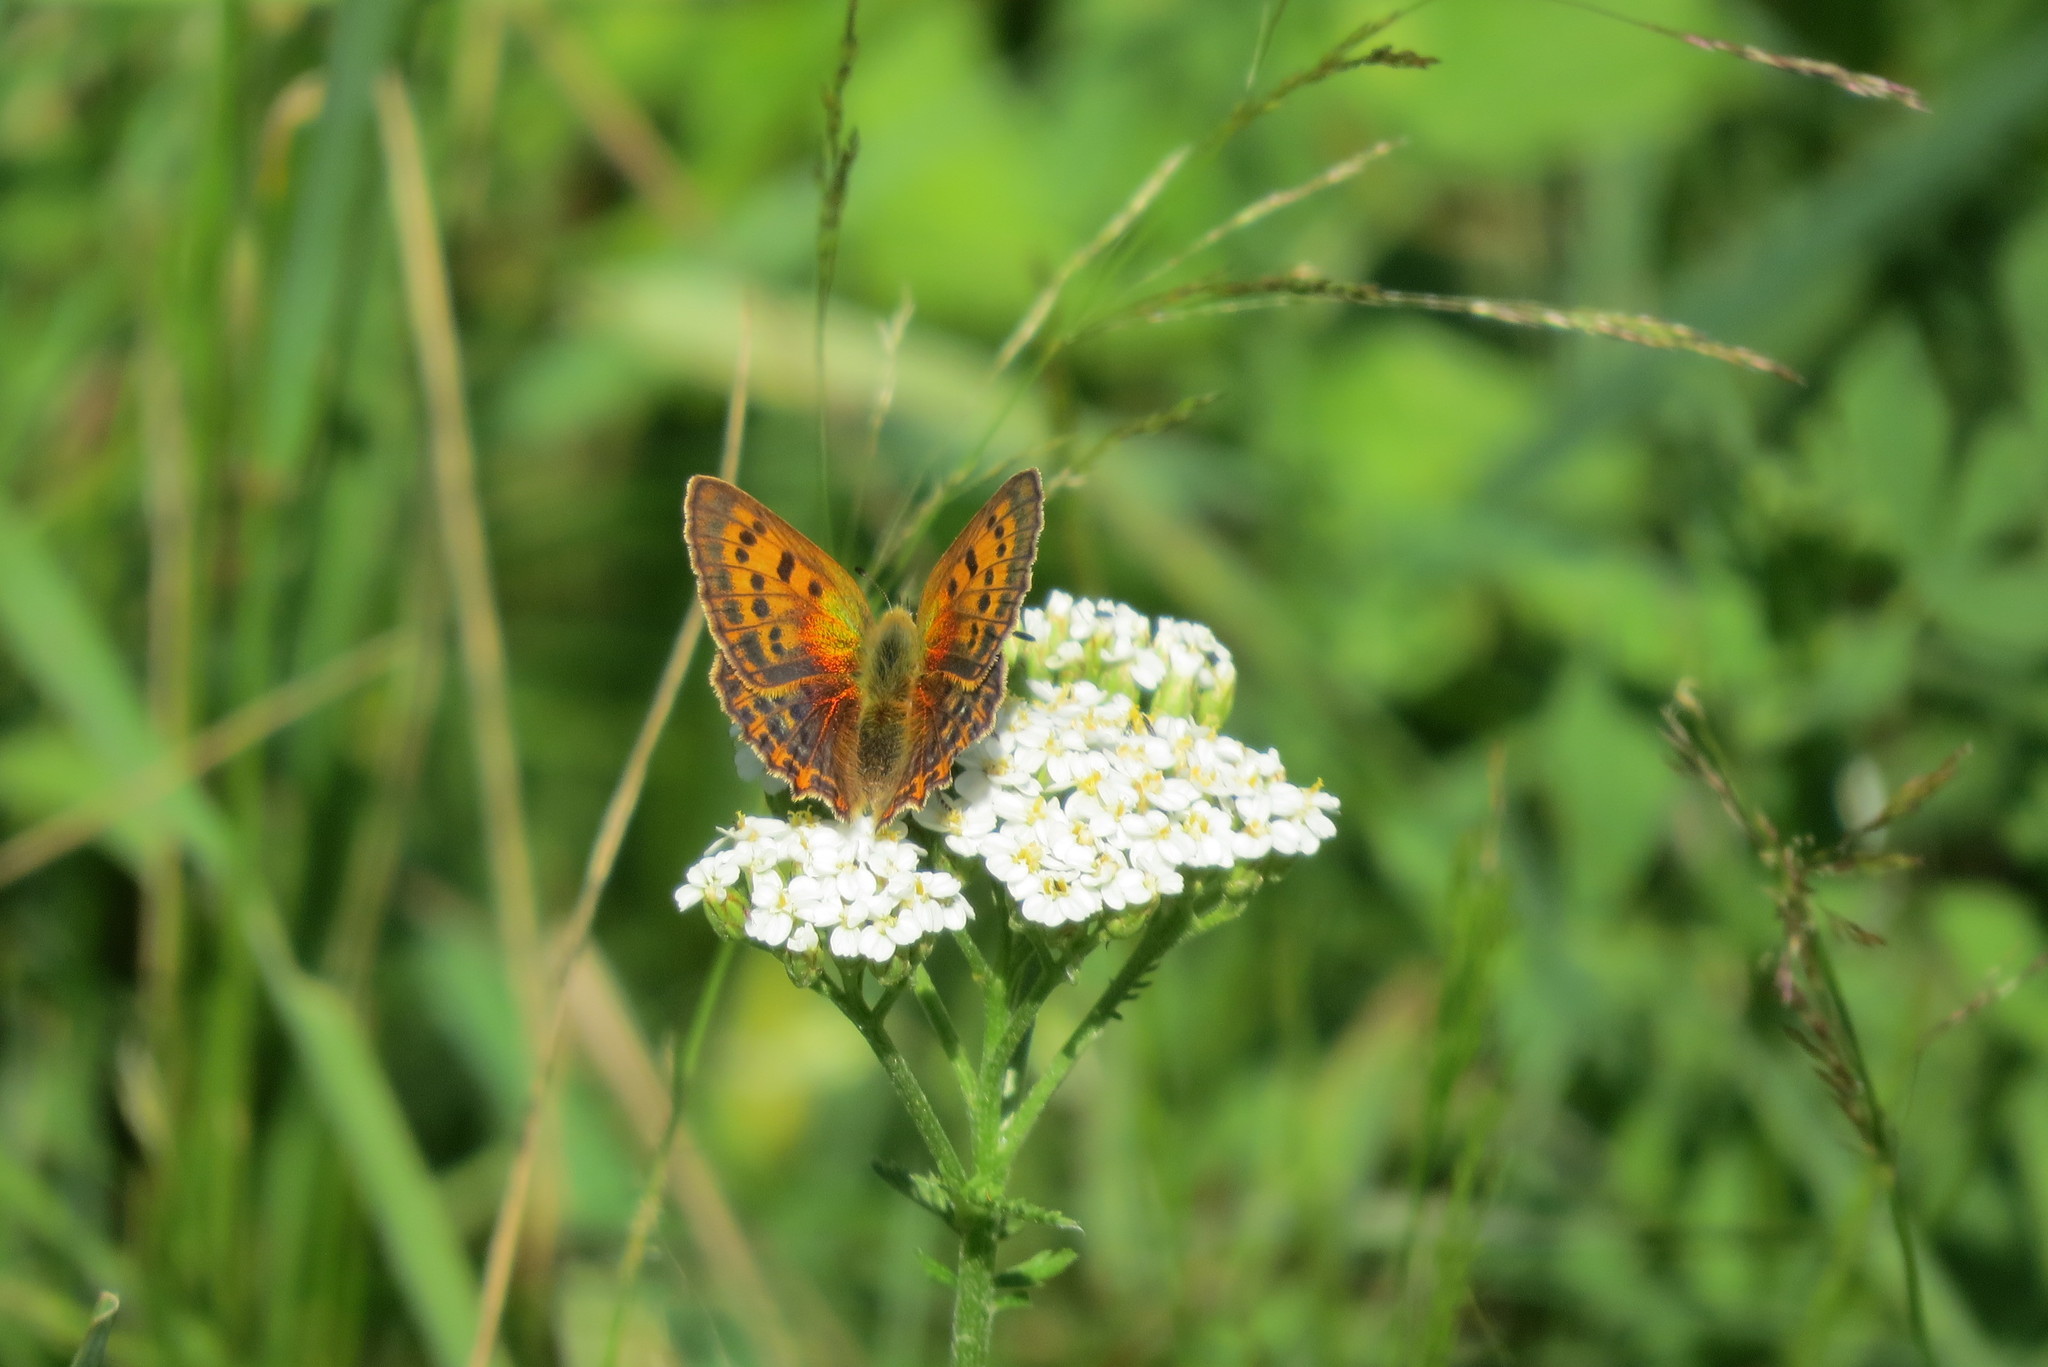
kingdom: Animalia
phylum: Arthropoda
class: Insecta
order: Lepidoptera
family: Lycaenidae
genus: Lycaena
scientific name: Lycaena virgaureae
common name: Scarce copper
